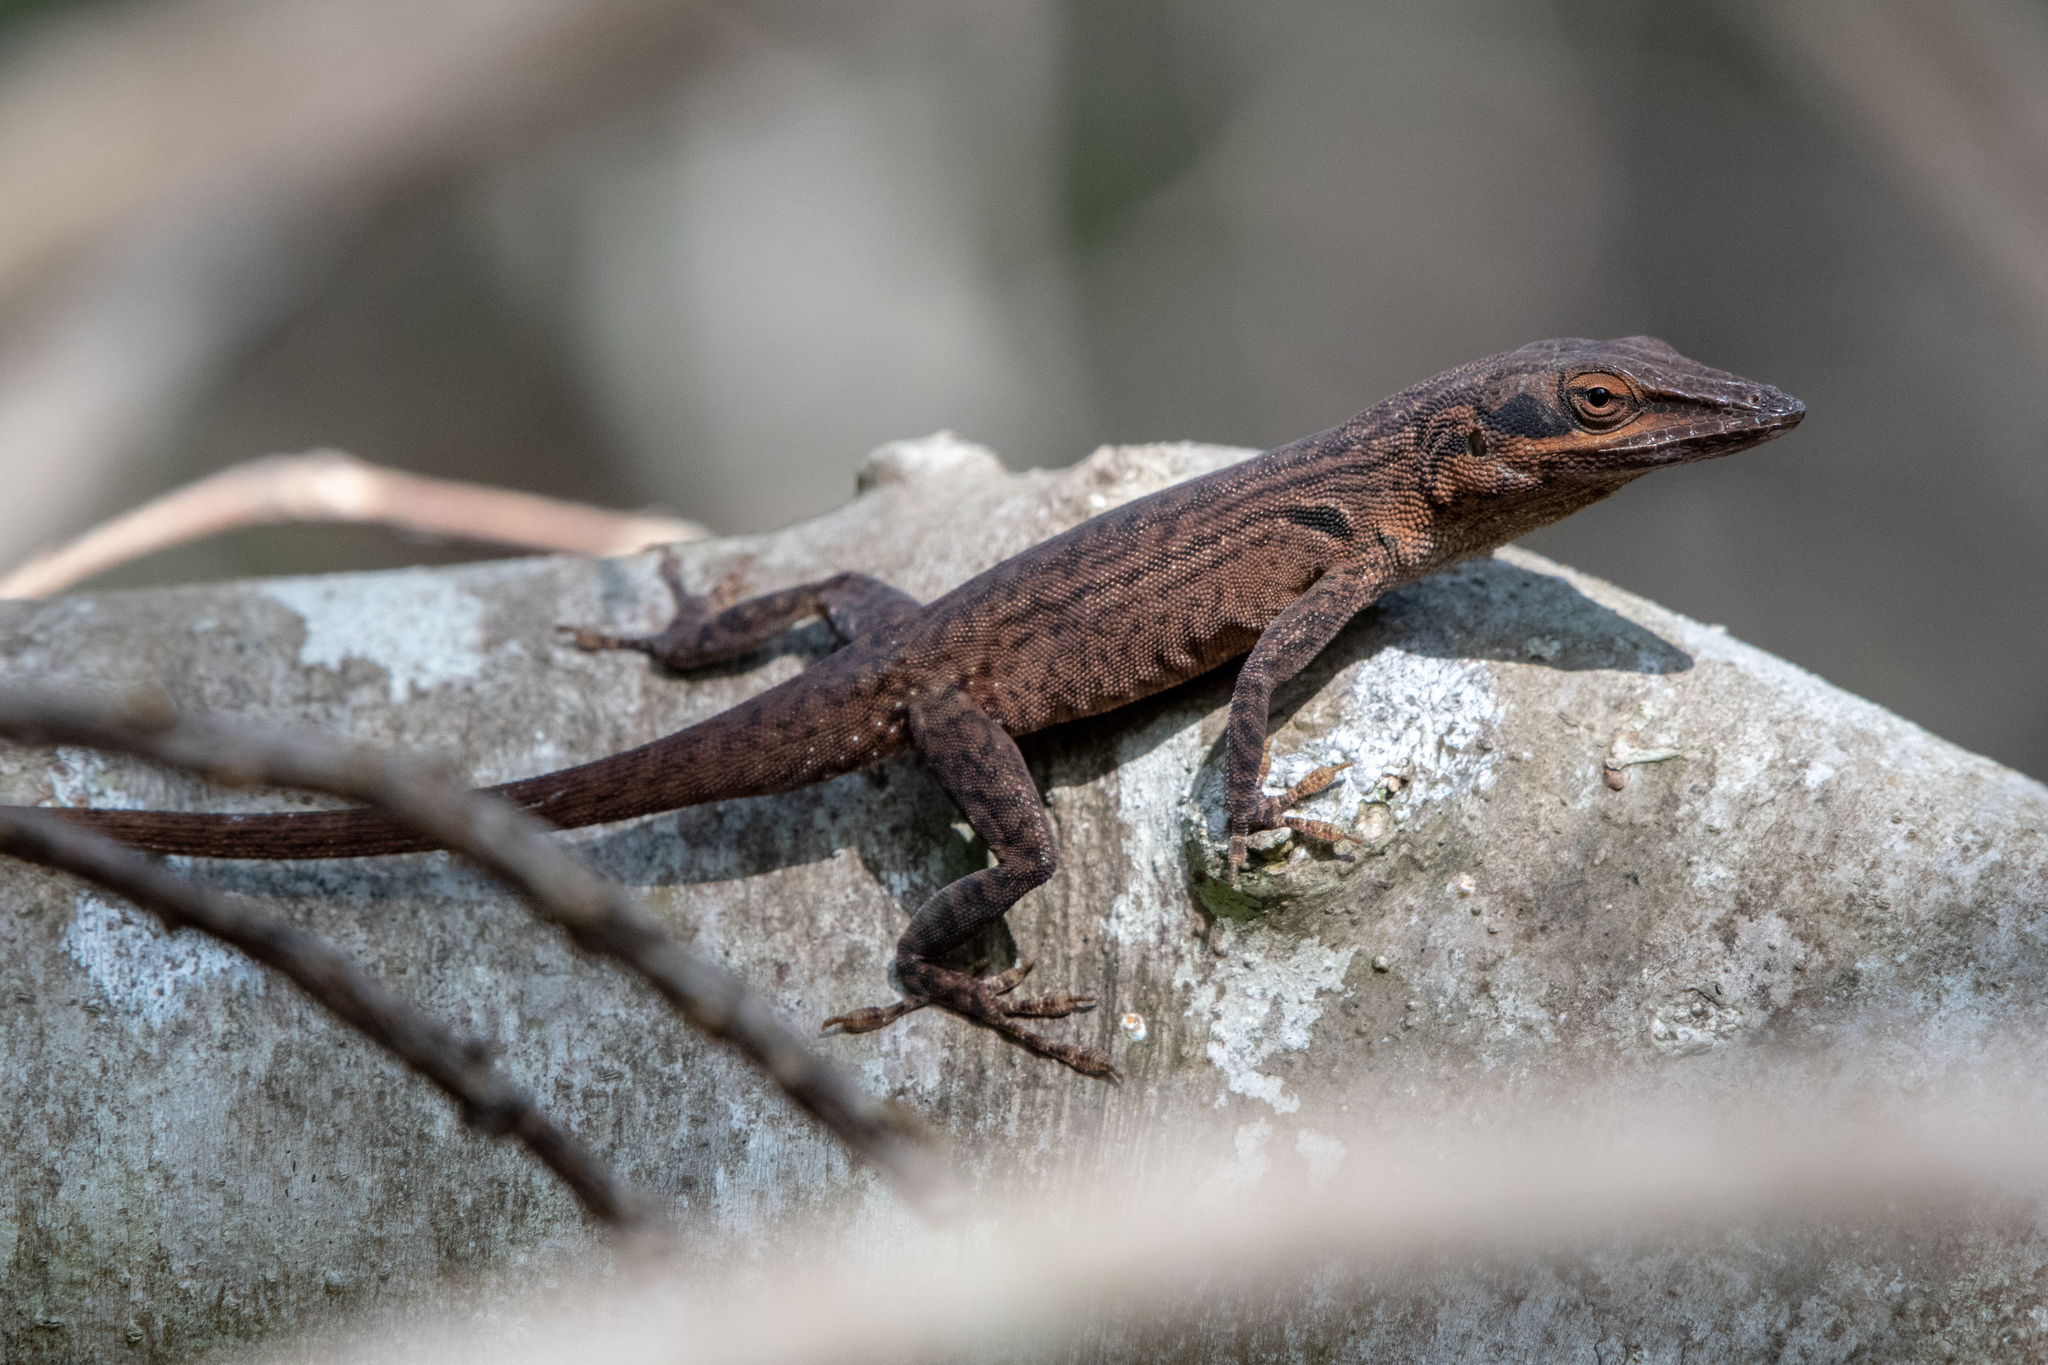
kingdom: Animalia
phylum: Chordata
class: Squamata
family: Dactyloidae
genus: Anolis
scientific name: Anolis carolinensis
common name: Green anole
